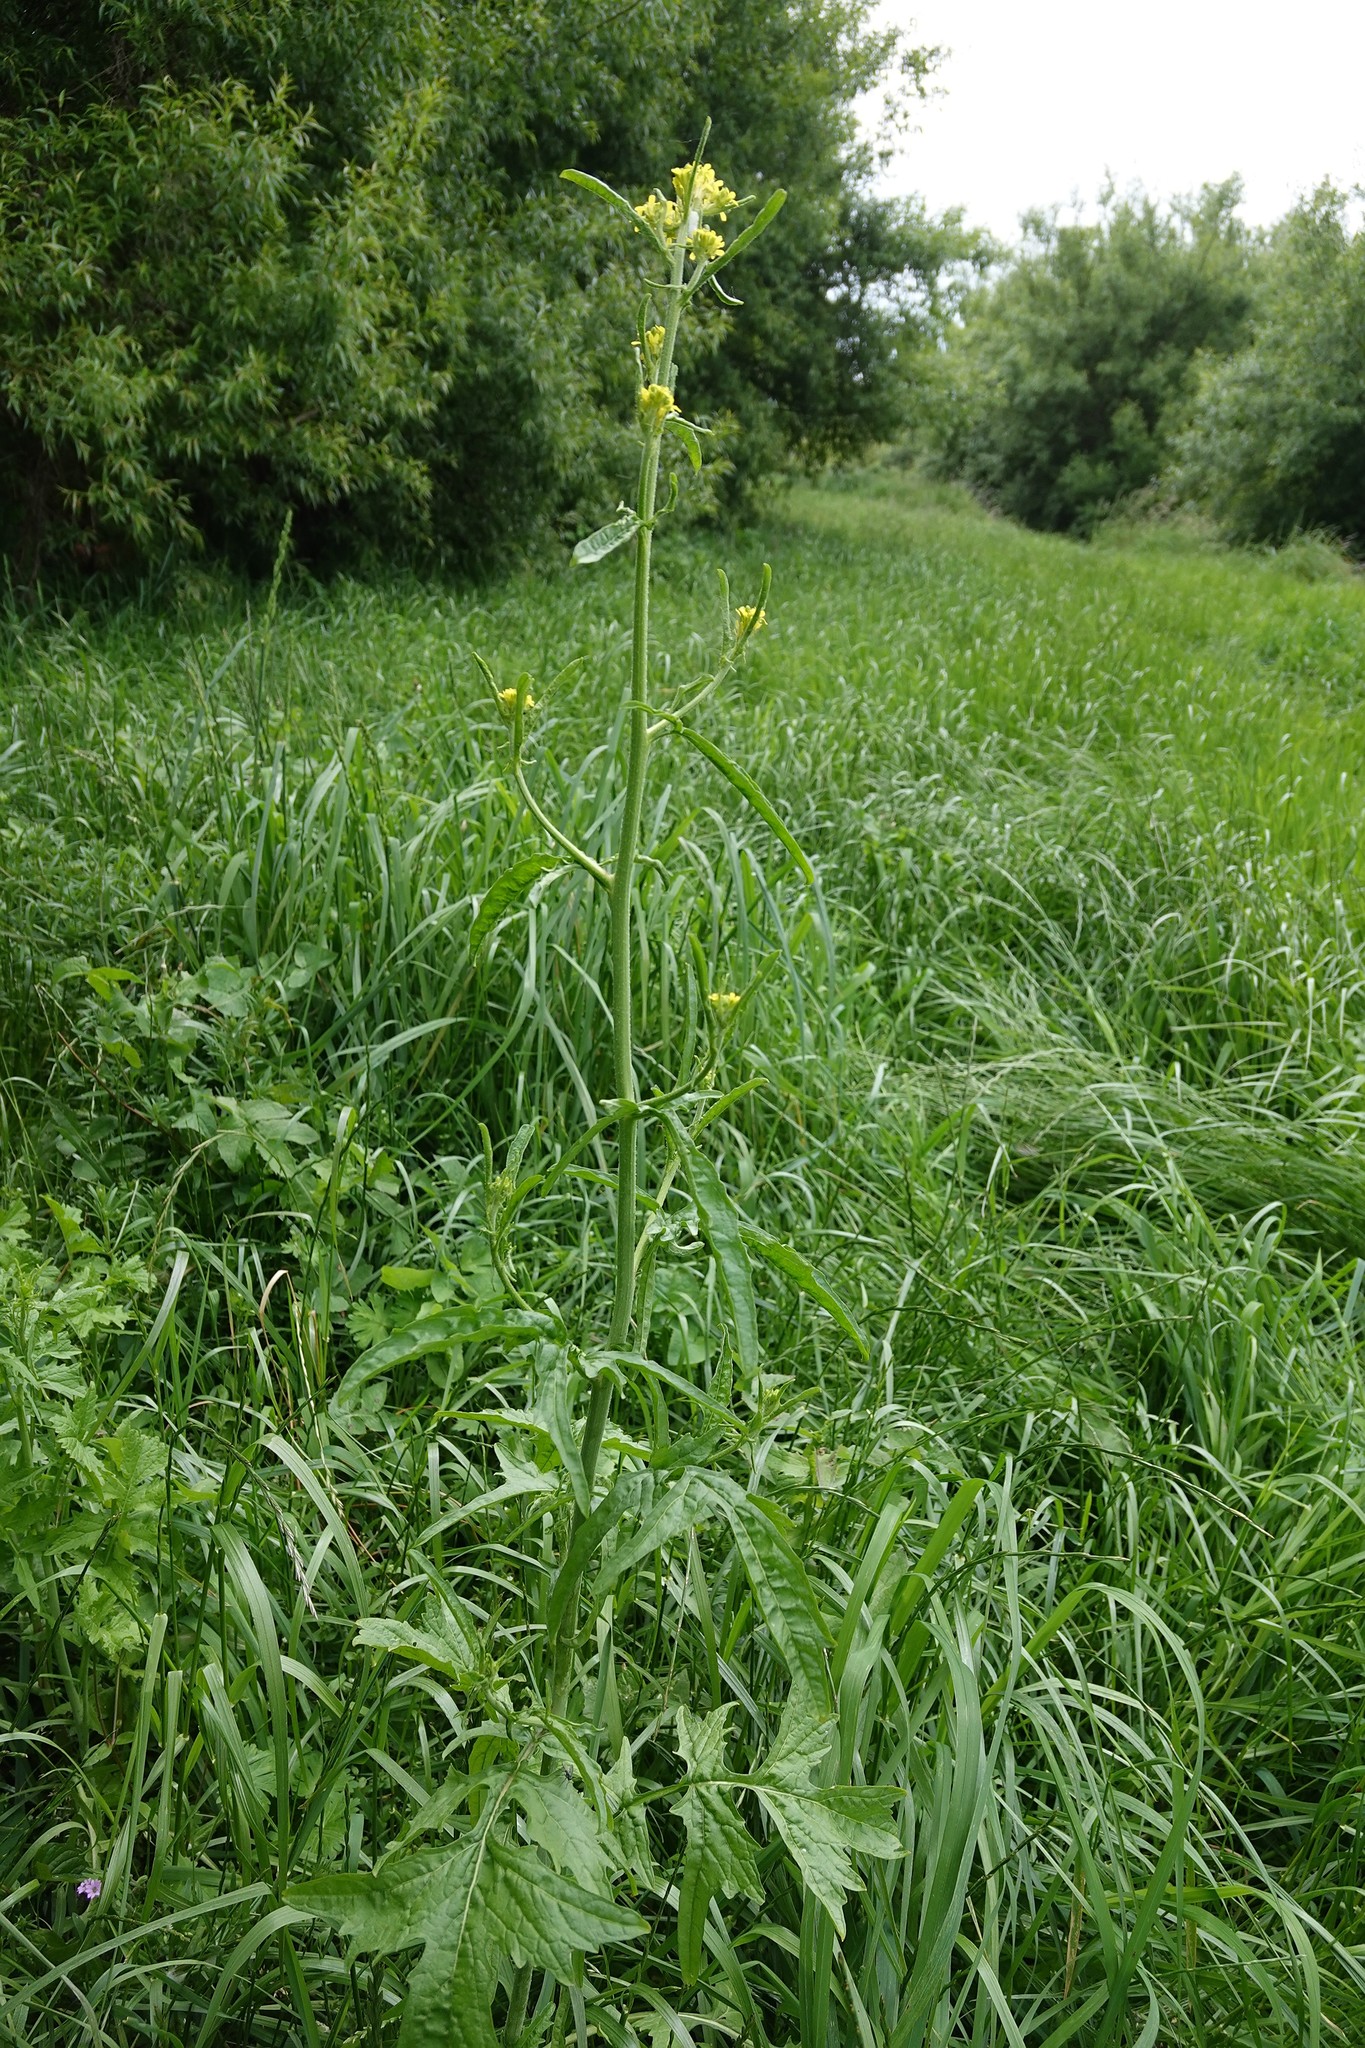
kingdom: Plantae
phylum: Tracheophyta
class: Magnoliopsida
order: Brassicales
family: Brassicaceae
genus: Sisymbrium
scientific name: Sisymbrium officinale
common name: Hedge mustard
